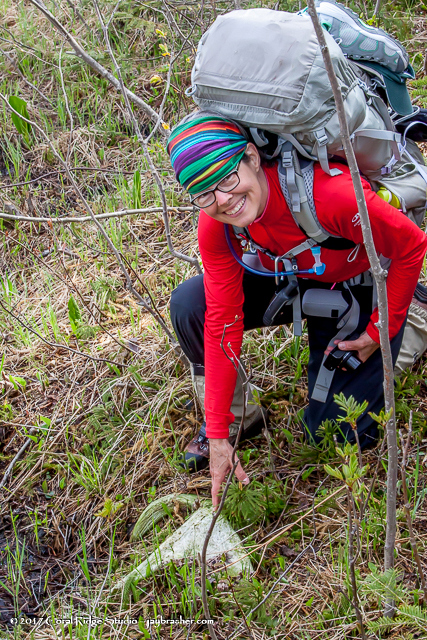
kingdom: Animalia
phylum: Chordata
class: Mammalia
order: Artiodactyla
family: Cervidae
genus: Alces
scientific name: Alces alces
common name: Moose
